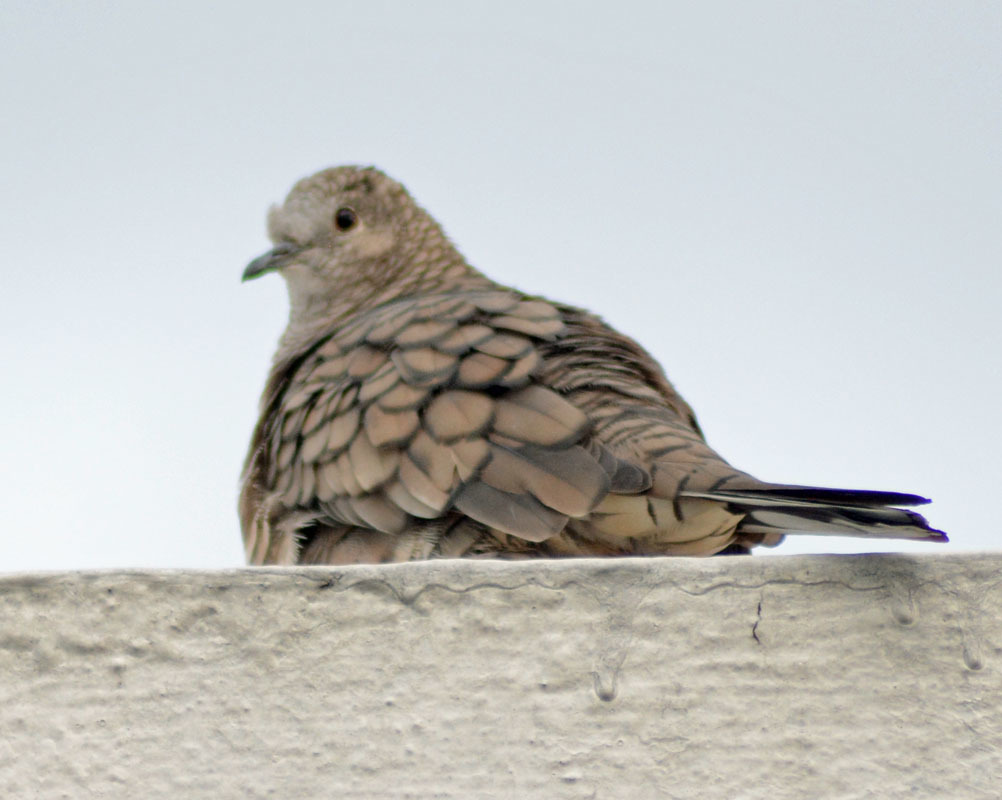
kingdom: Animalia
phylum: Chordata
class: Aves
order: Columbiformes
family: Columbidae
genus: Columbina
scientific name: Columbina inca
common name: Inca dove
